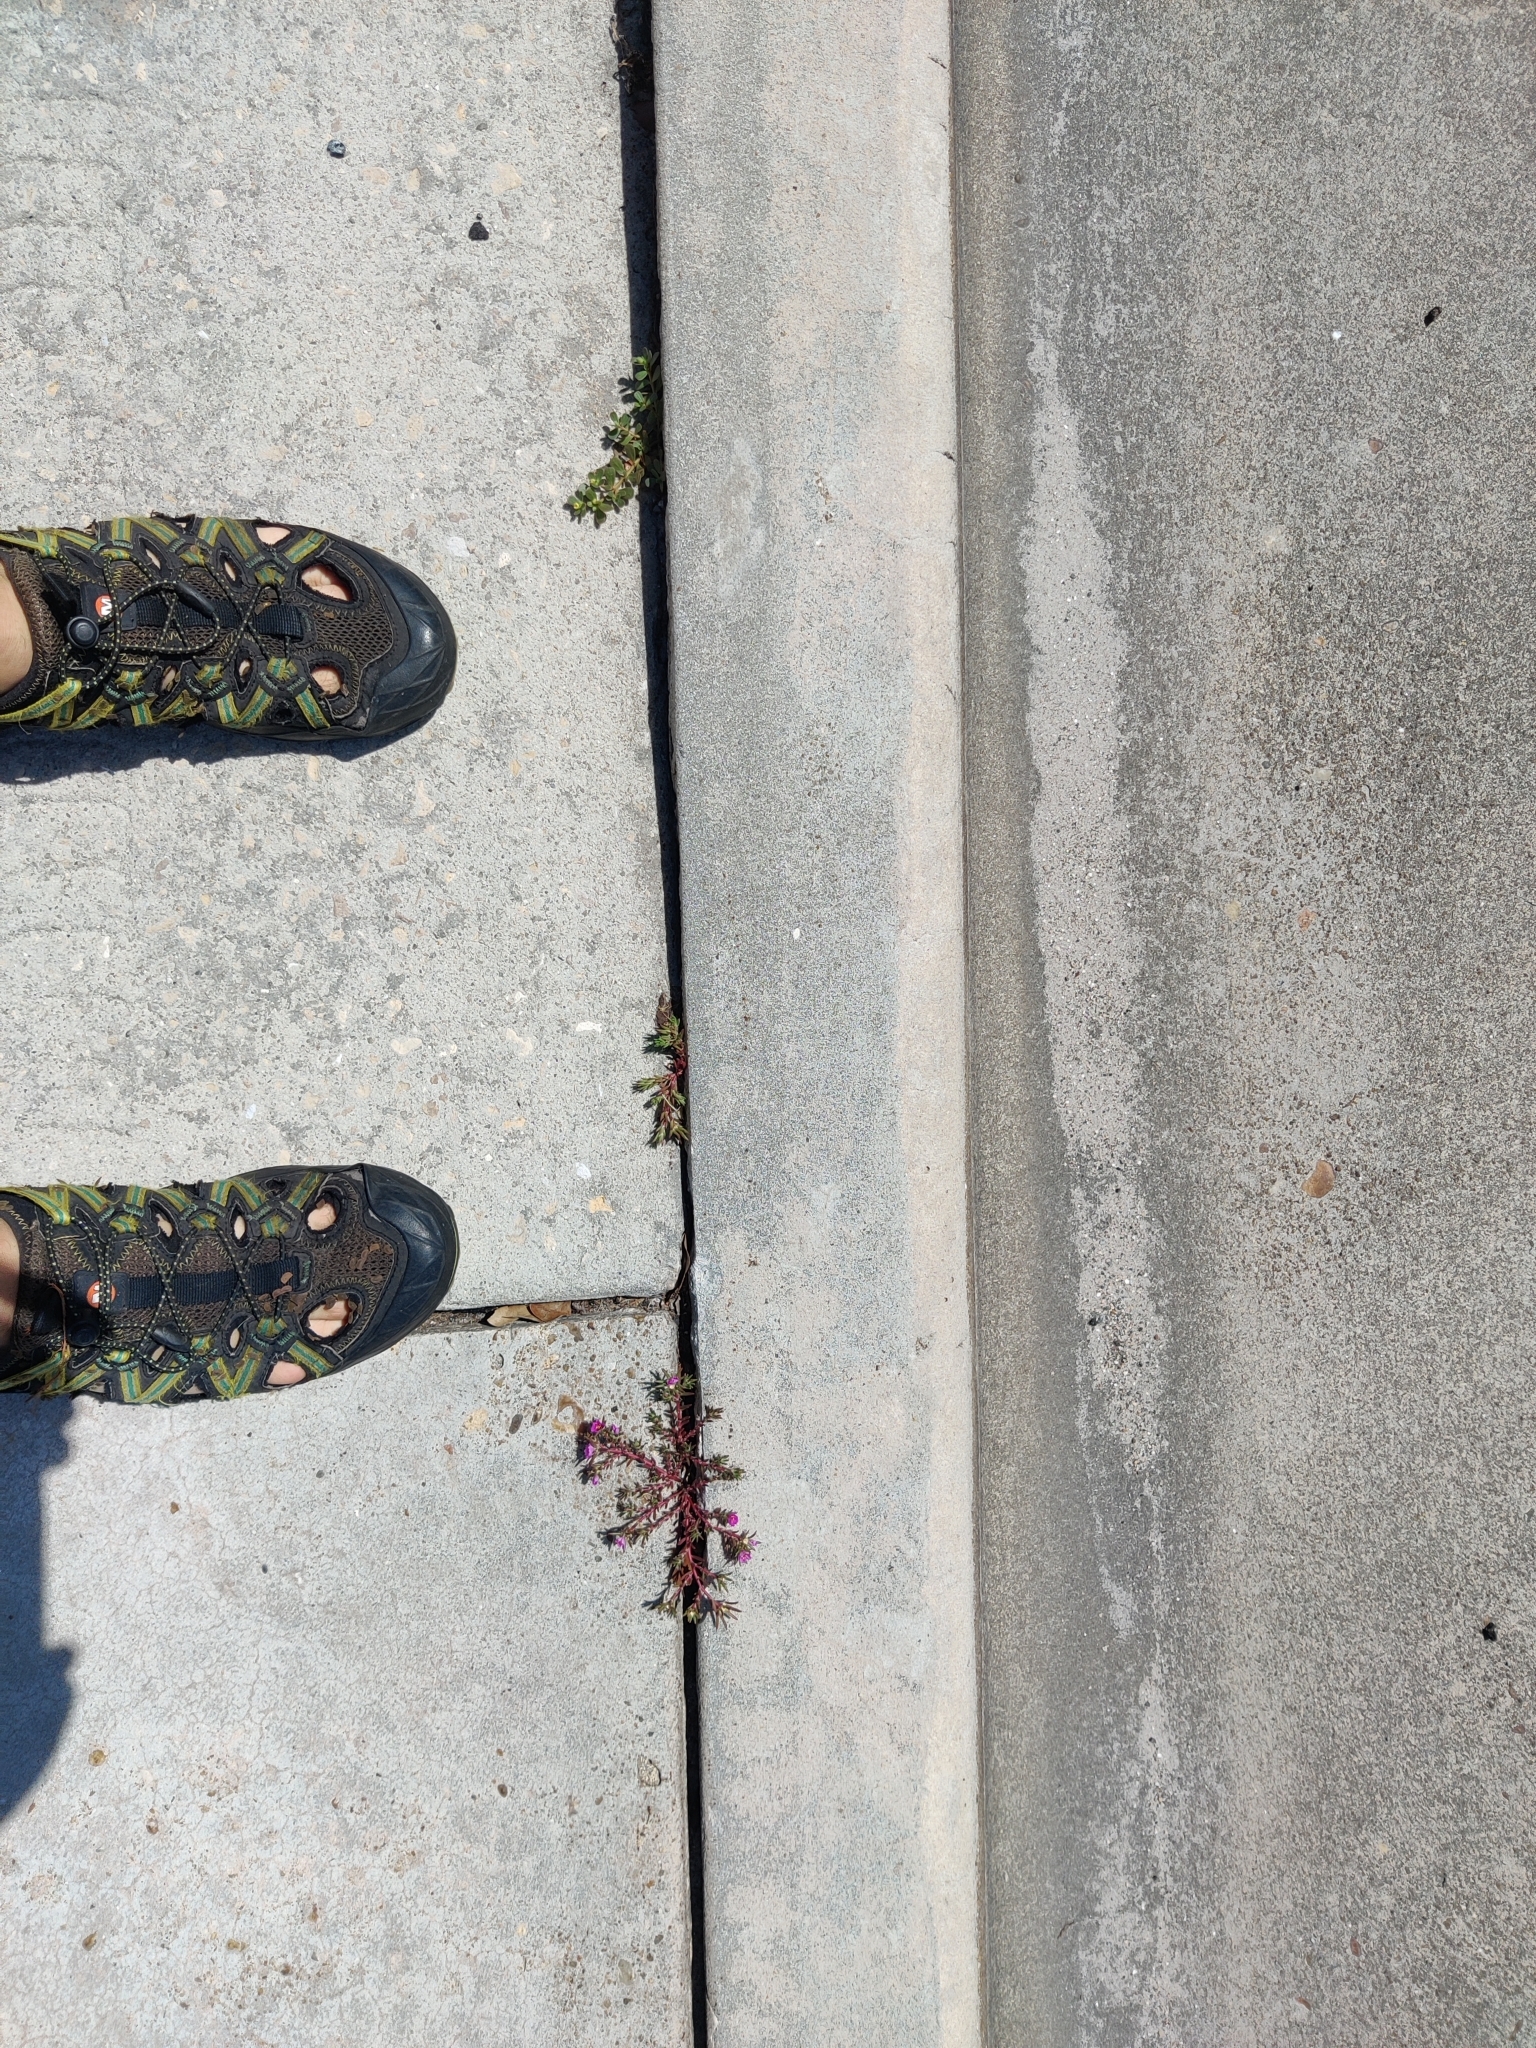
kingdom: Plantae
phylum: Tracheophyta
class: Magnoliopsida
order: Caryophyllales
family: Portulacaceae
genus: Portulaca
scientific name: Portulaca pilosa
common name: Kiss me quick
